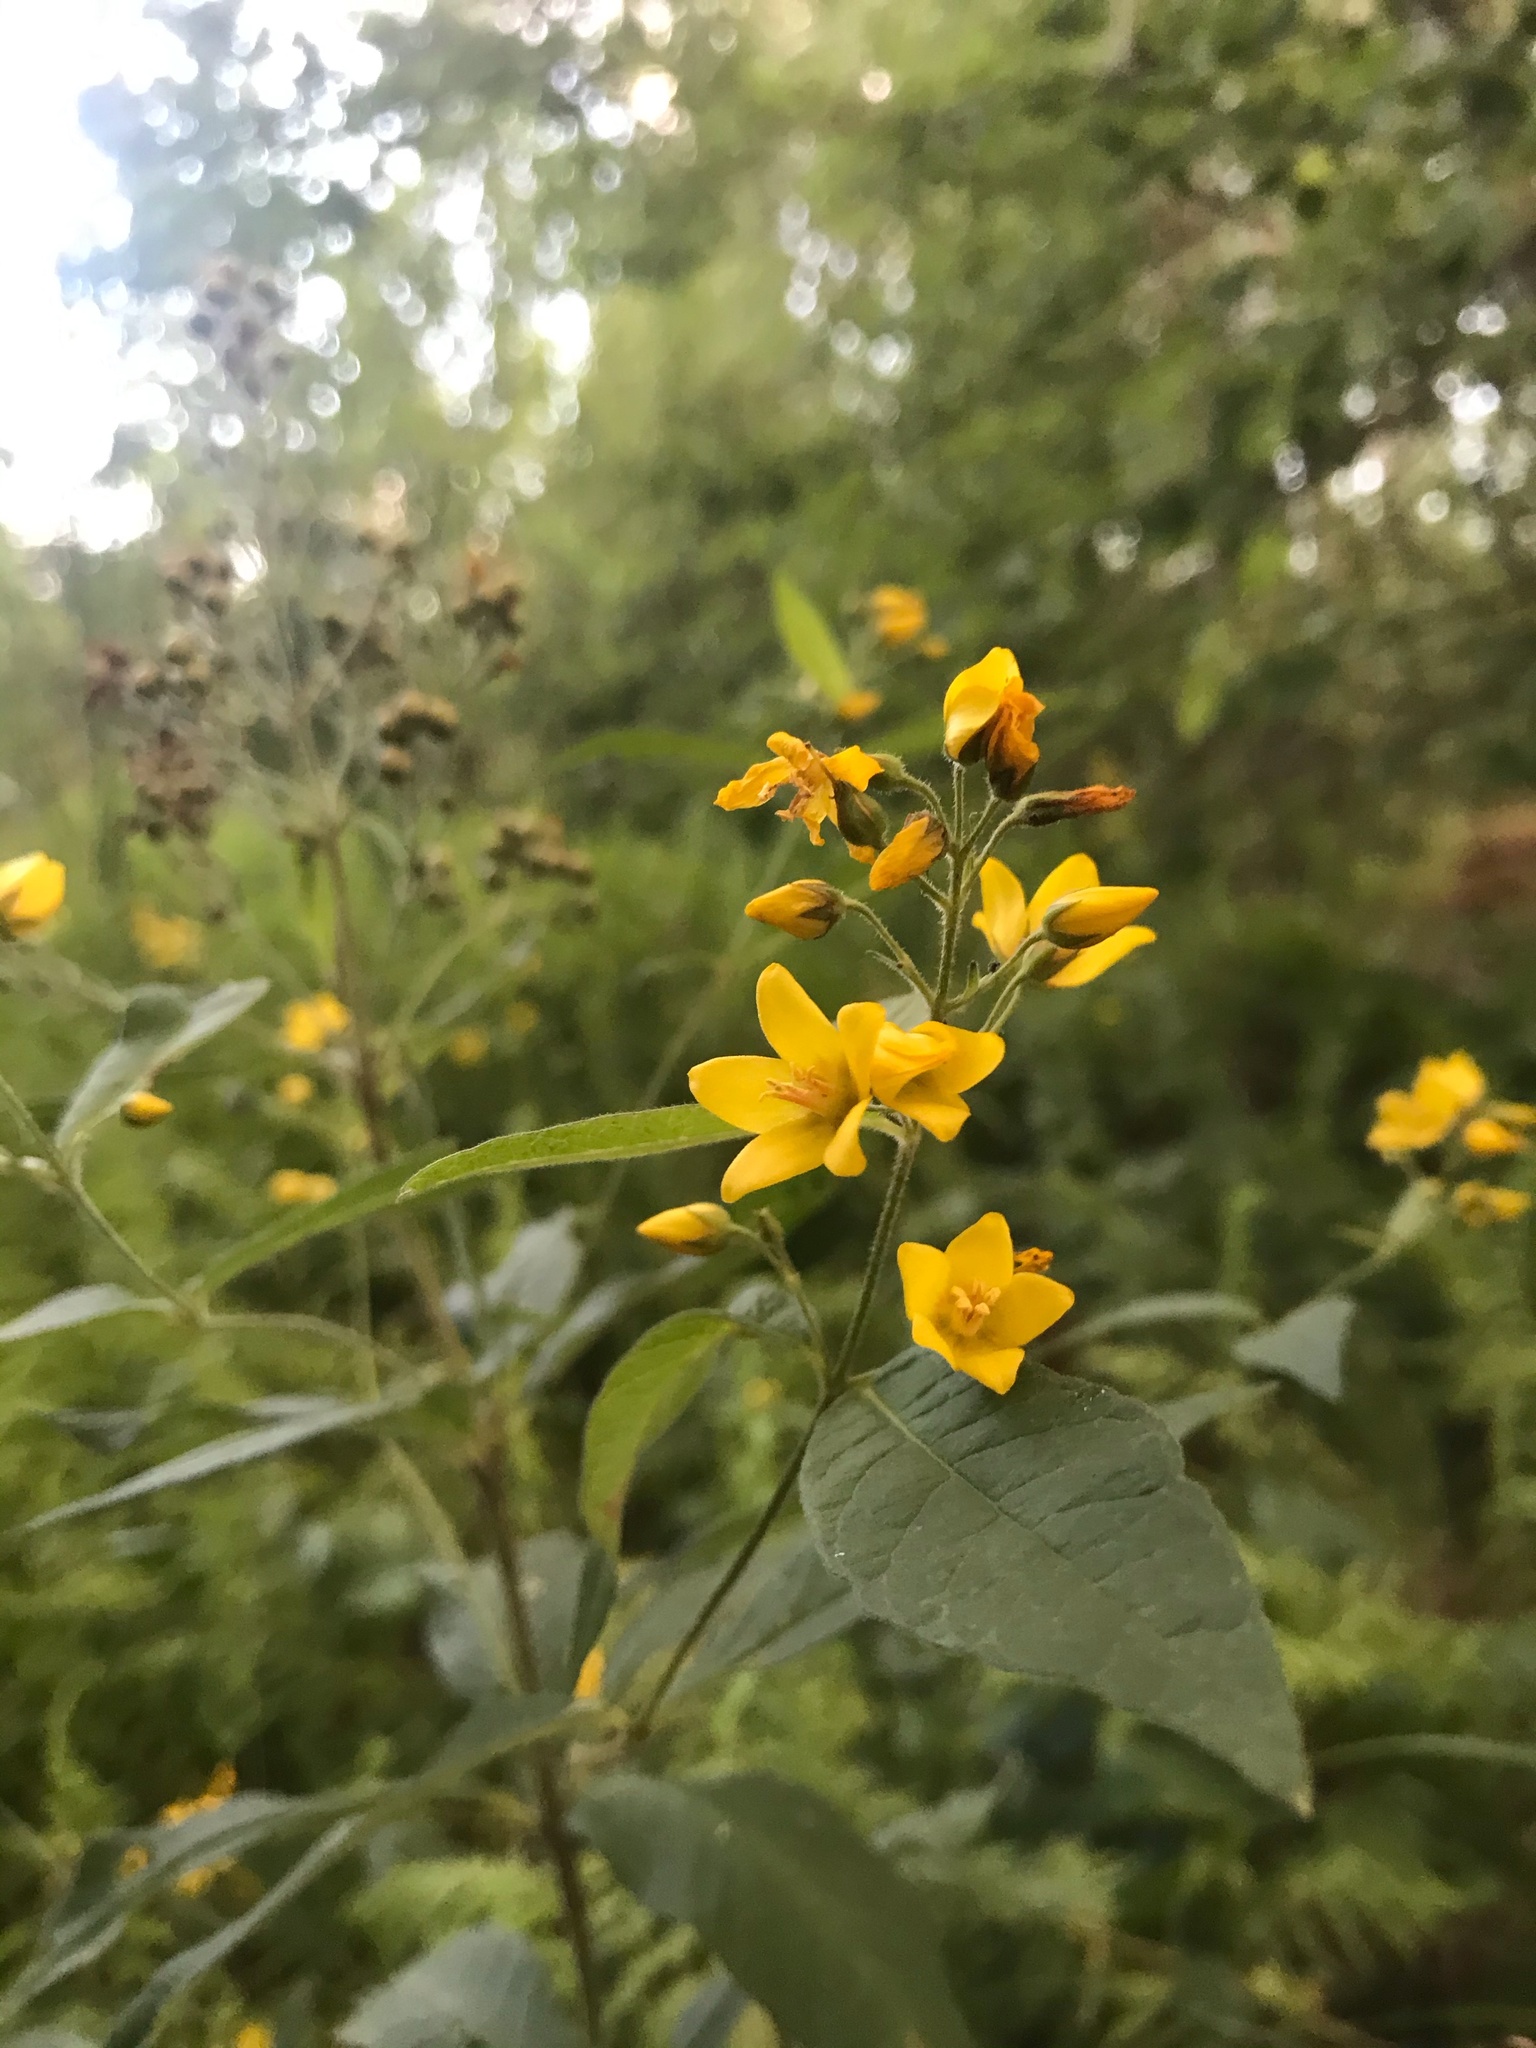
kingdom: Plantae
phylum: Tracheophyta
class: Magnoliopsida
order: Ericales
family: Primulaceae
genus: Lysimachia
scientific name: Lysimachia vulgaris
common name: Yellow loosestrife
